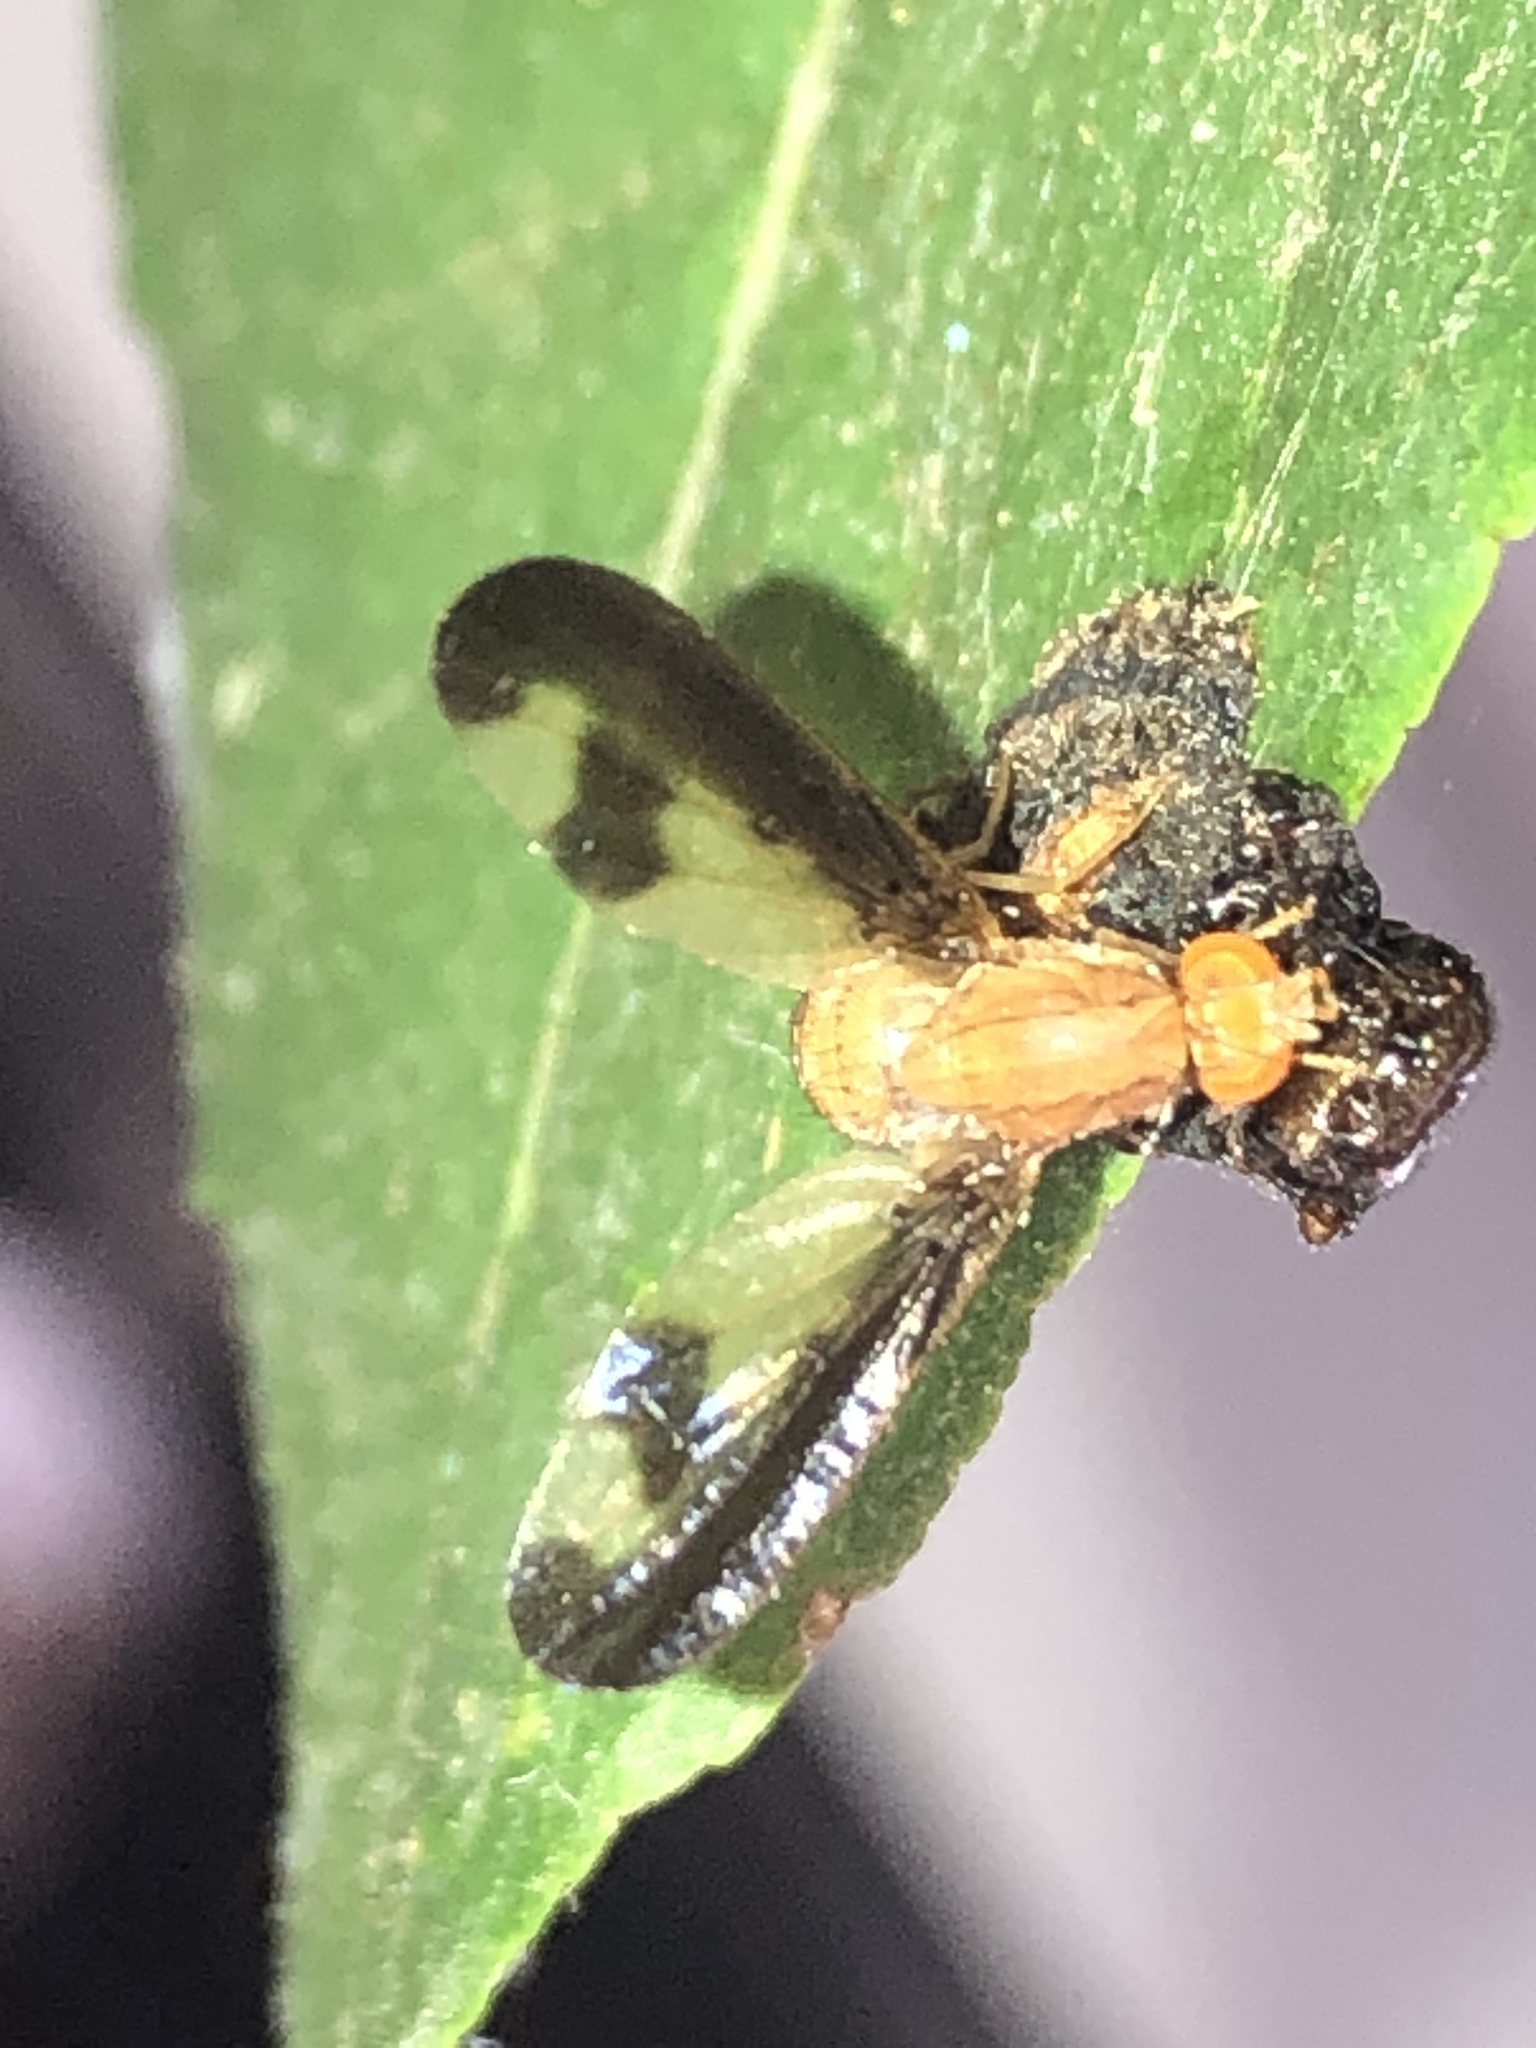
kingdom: Animalia
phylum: Arthropoda
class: Insecta
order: Diptera
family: Pallopteridae
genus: Toxonevra
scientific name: Toxonevra superba
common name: Antlered flutter fly
